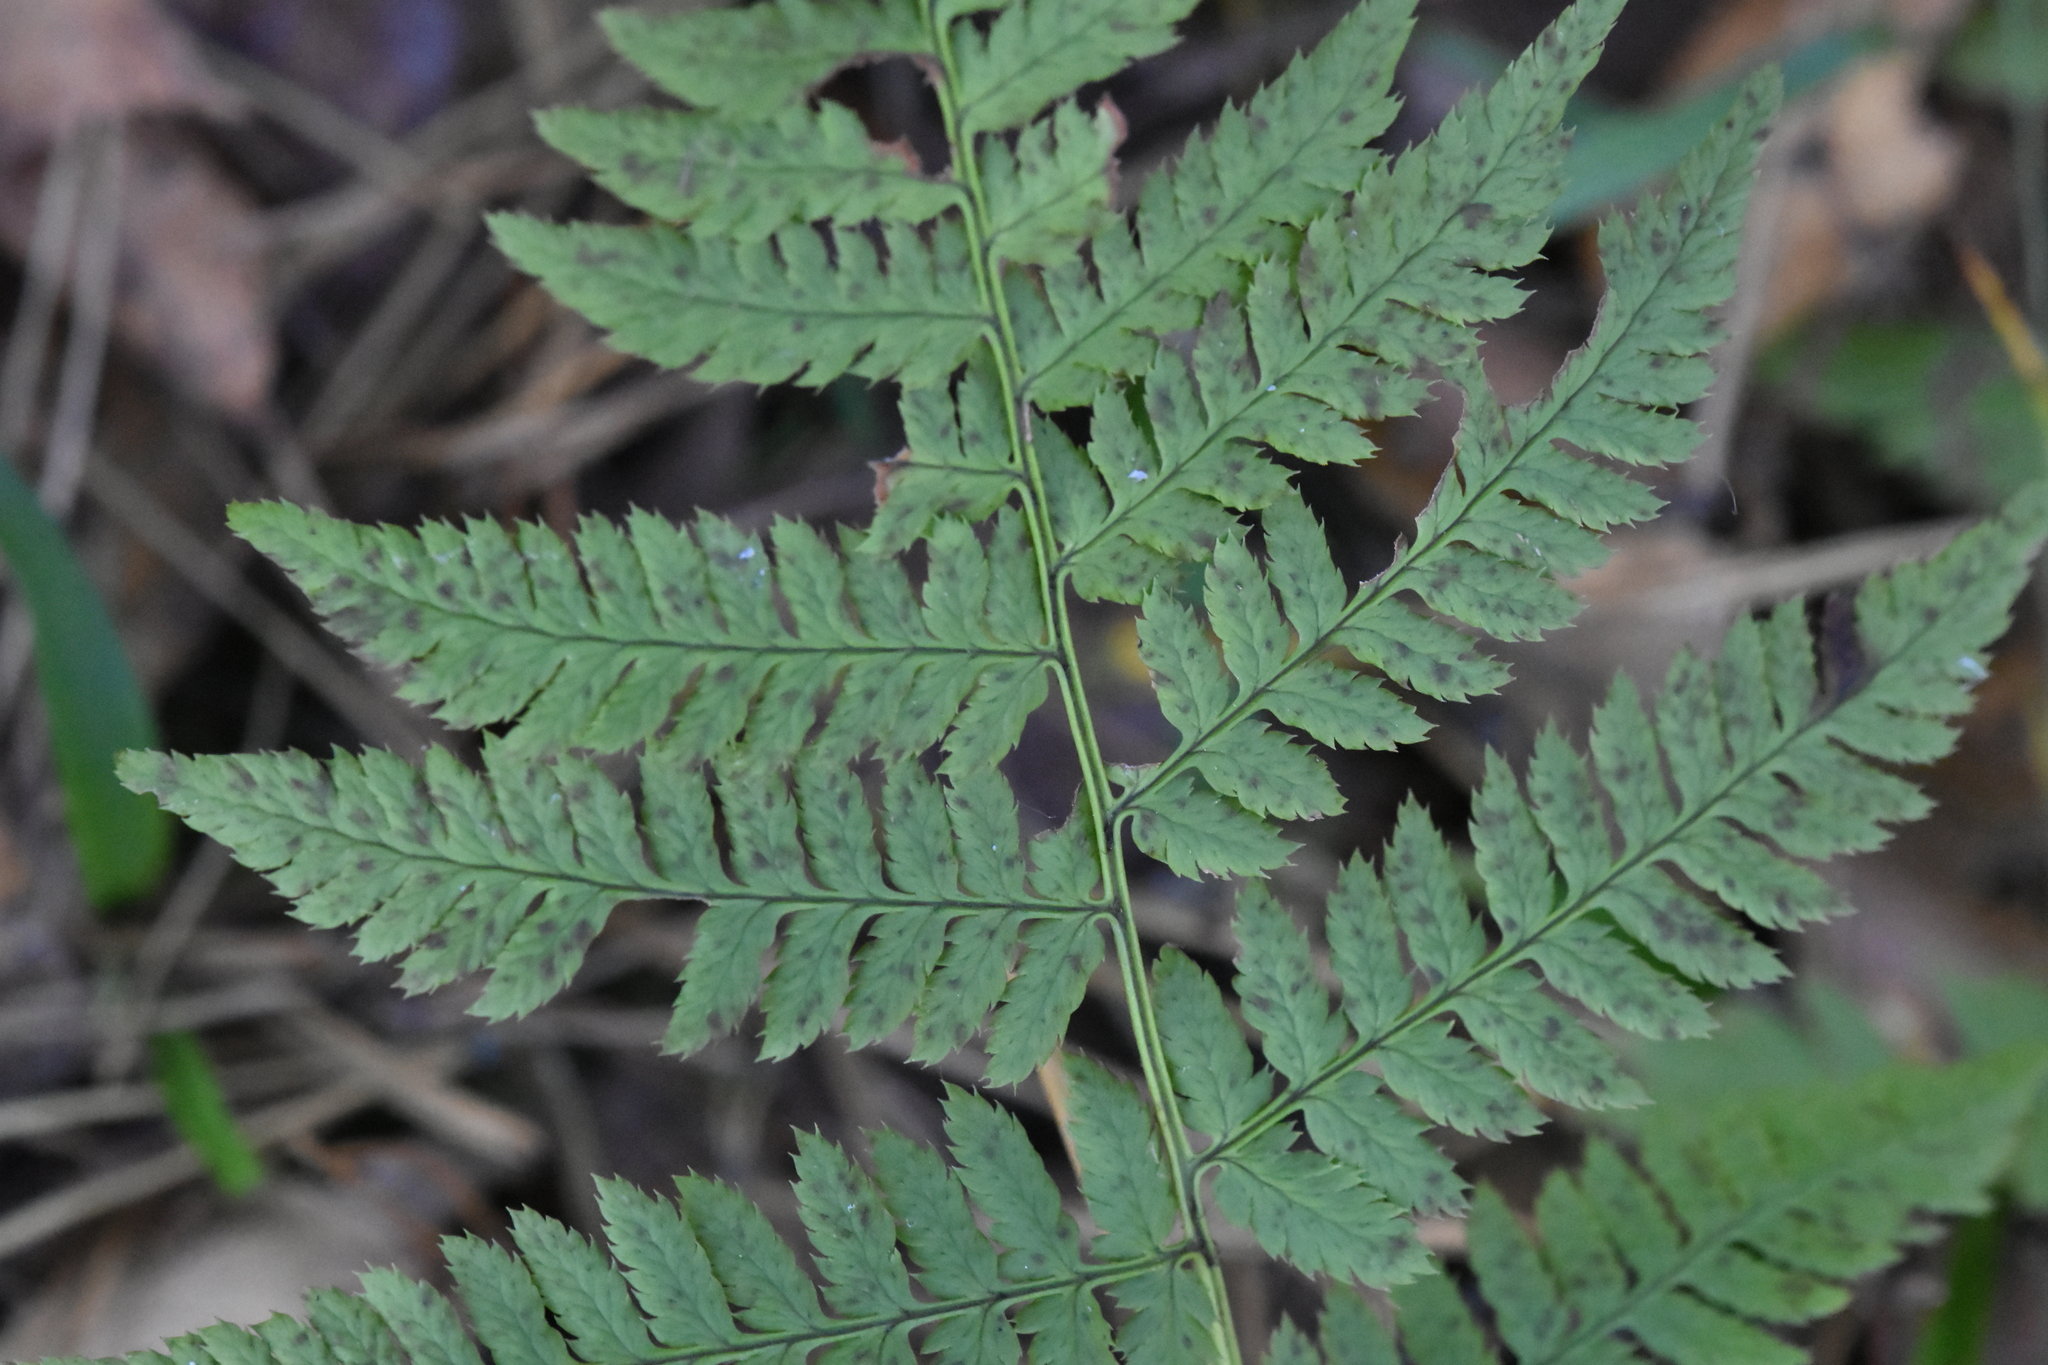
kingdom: Plantae
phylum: Tracheophyta
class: Polypodiopsida
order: Polypodiales
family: Dryopteridaceae
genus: Dryopteris
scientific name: Dryopteris carthusiana
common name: Narrow buckler-fern
